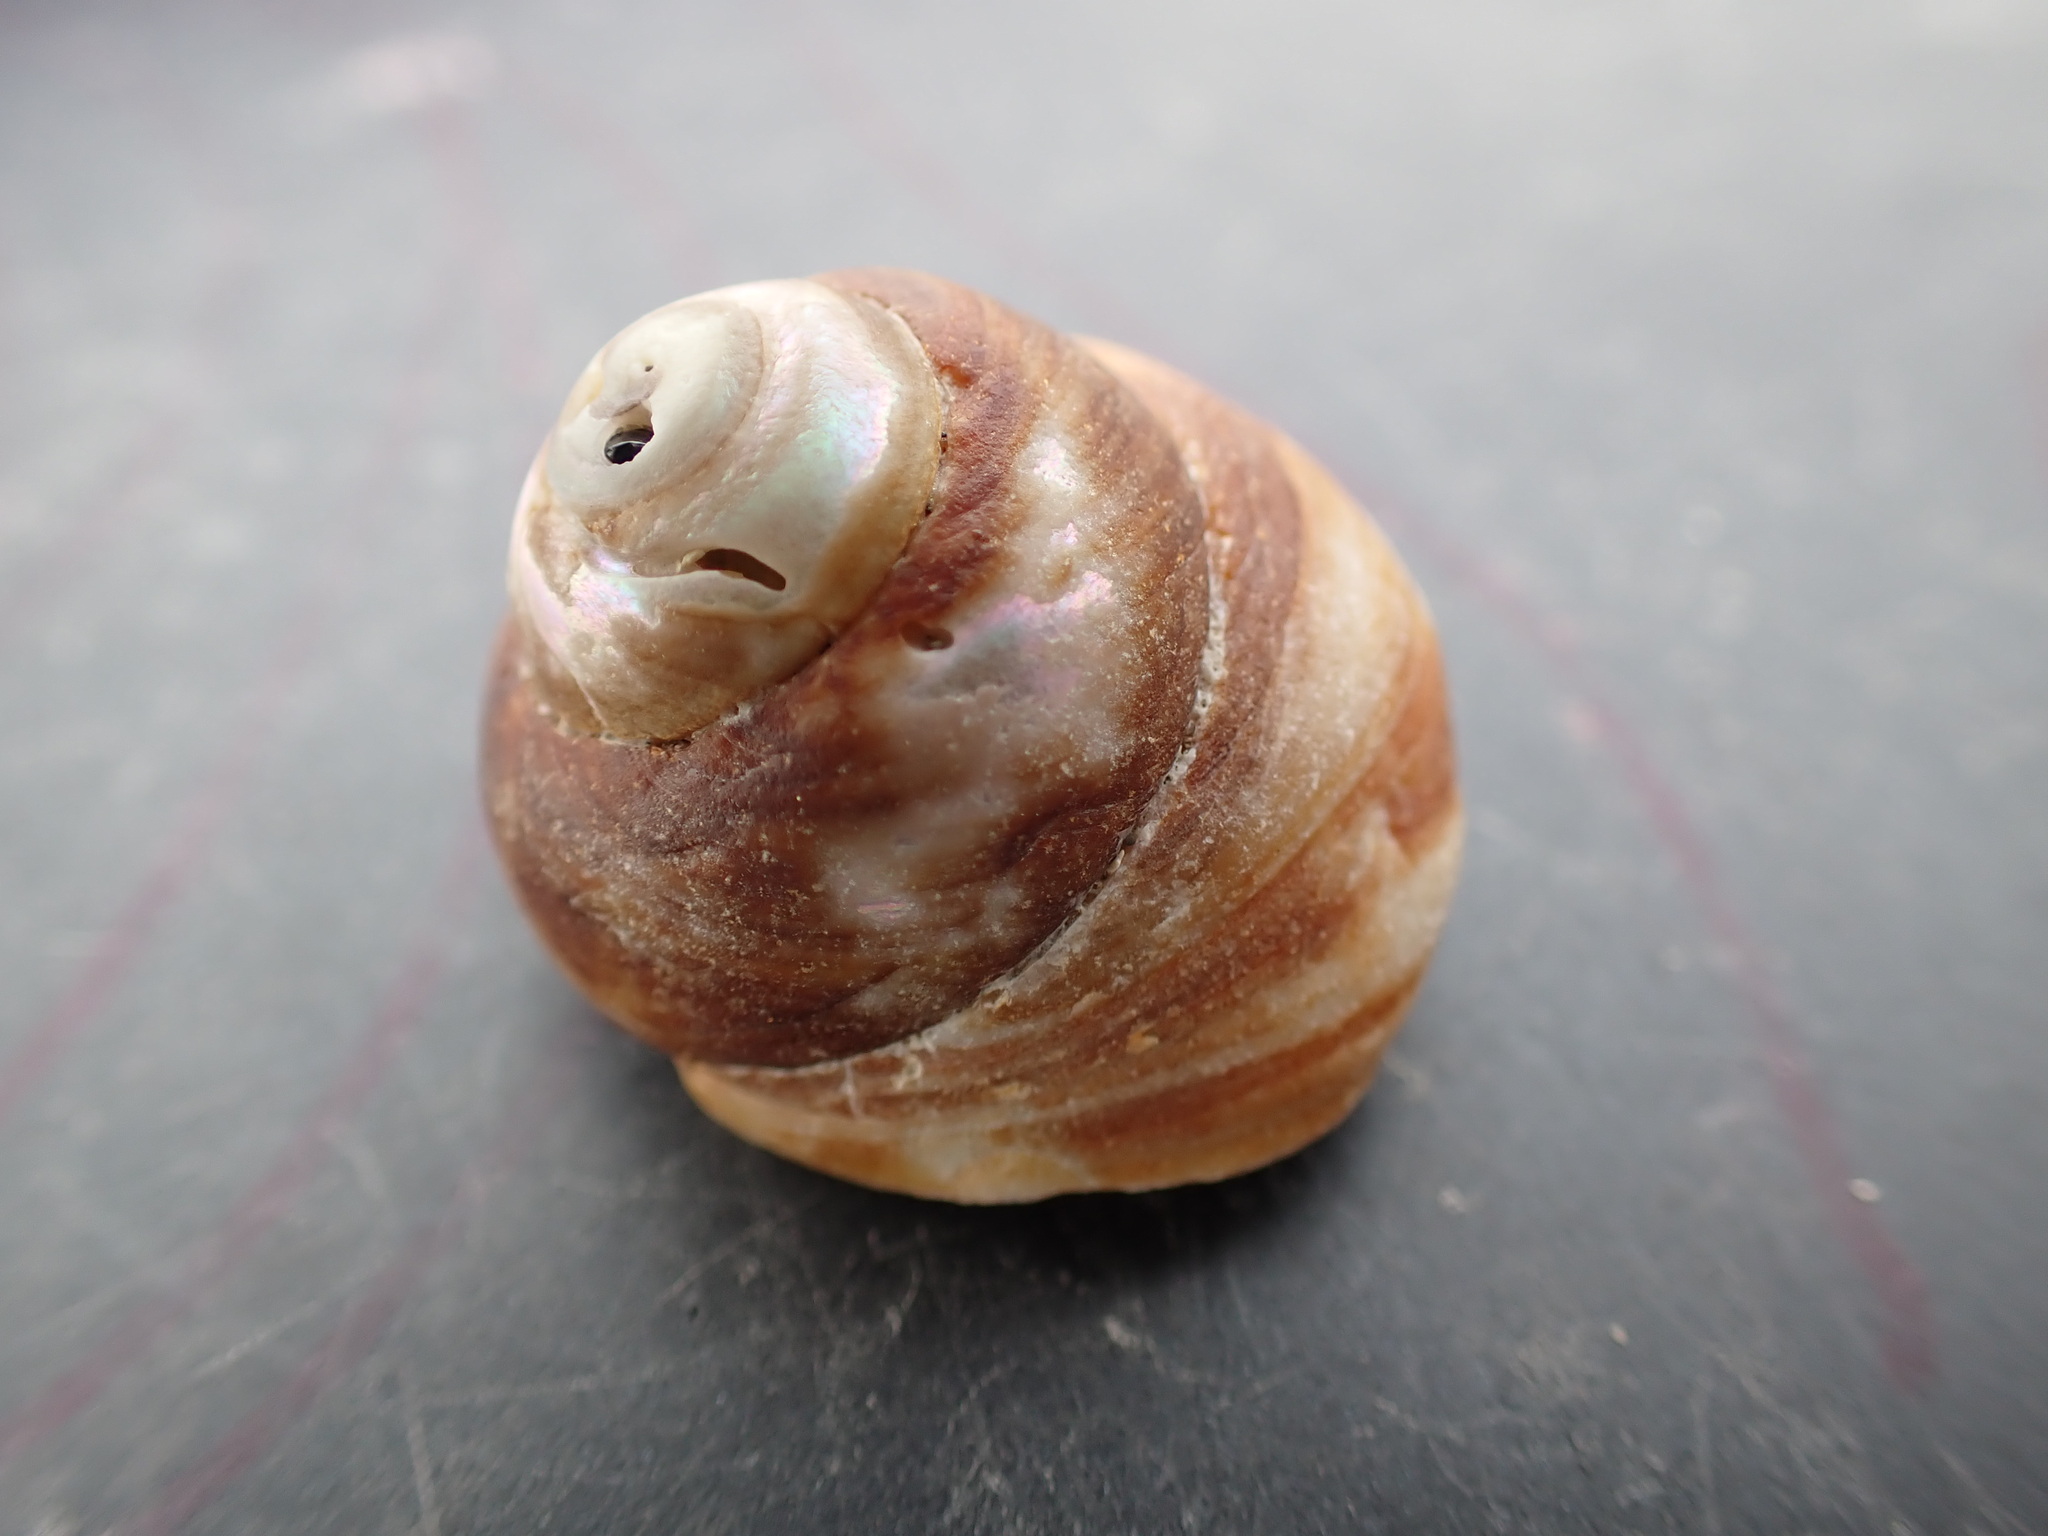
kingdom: Animalia
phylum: Mollusca
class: Gastropoda
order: Trochida
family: Tegulidae
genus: Tegula
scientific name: Tegula brunnea
